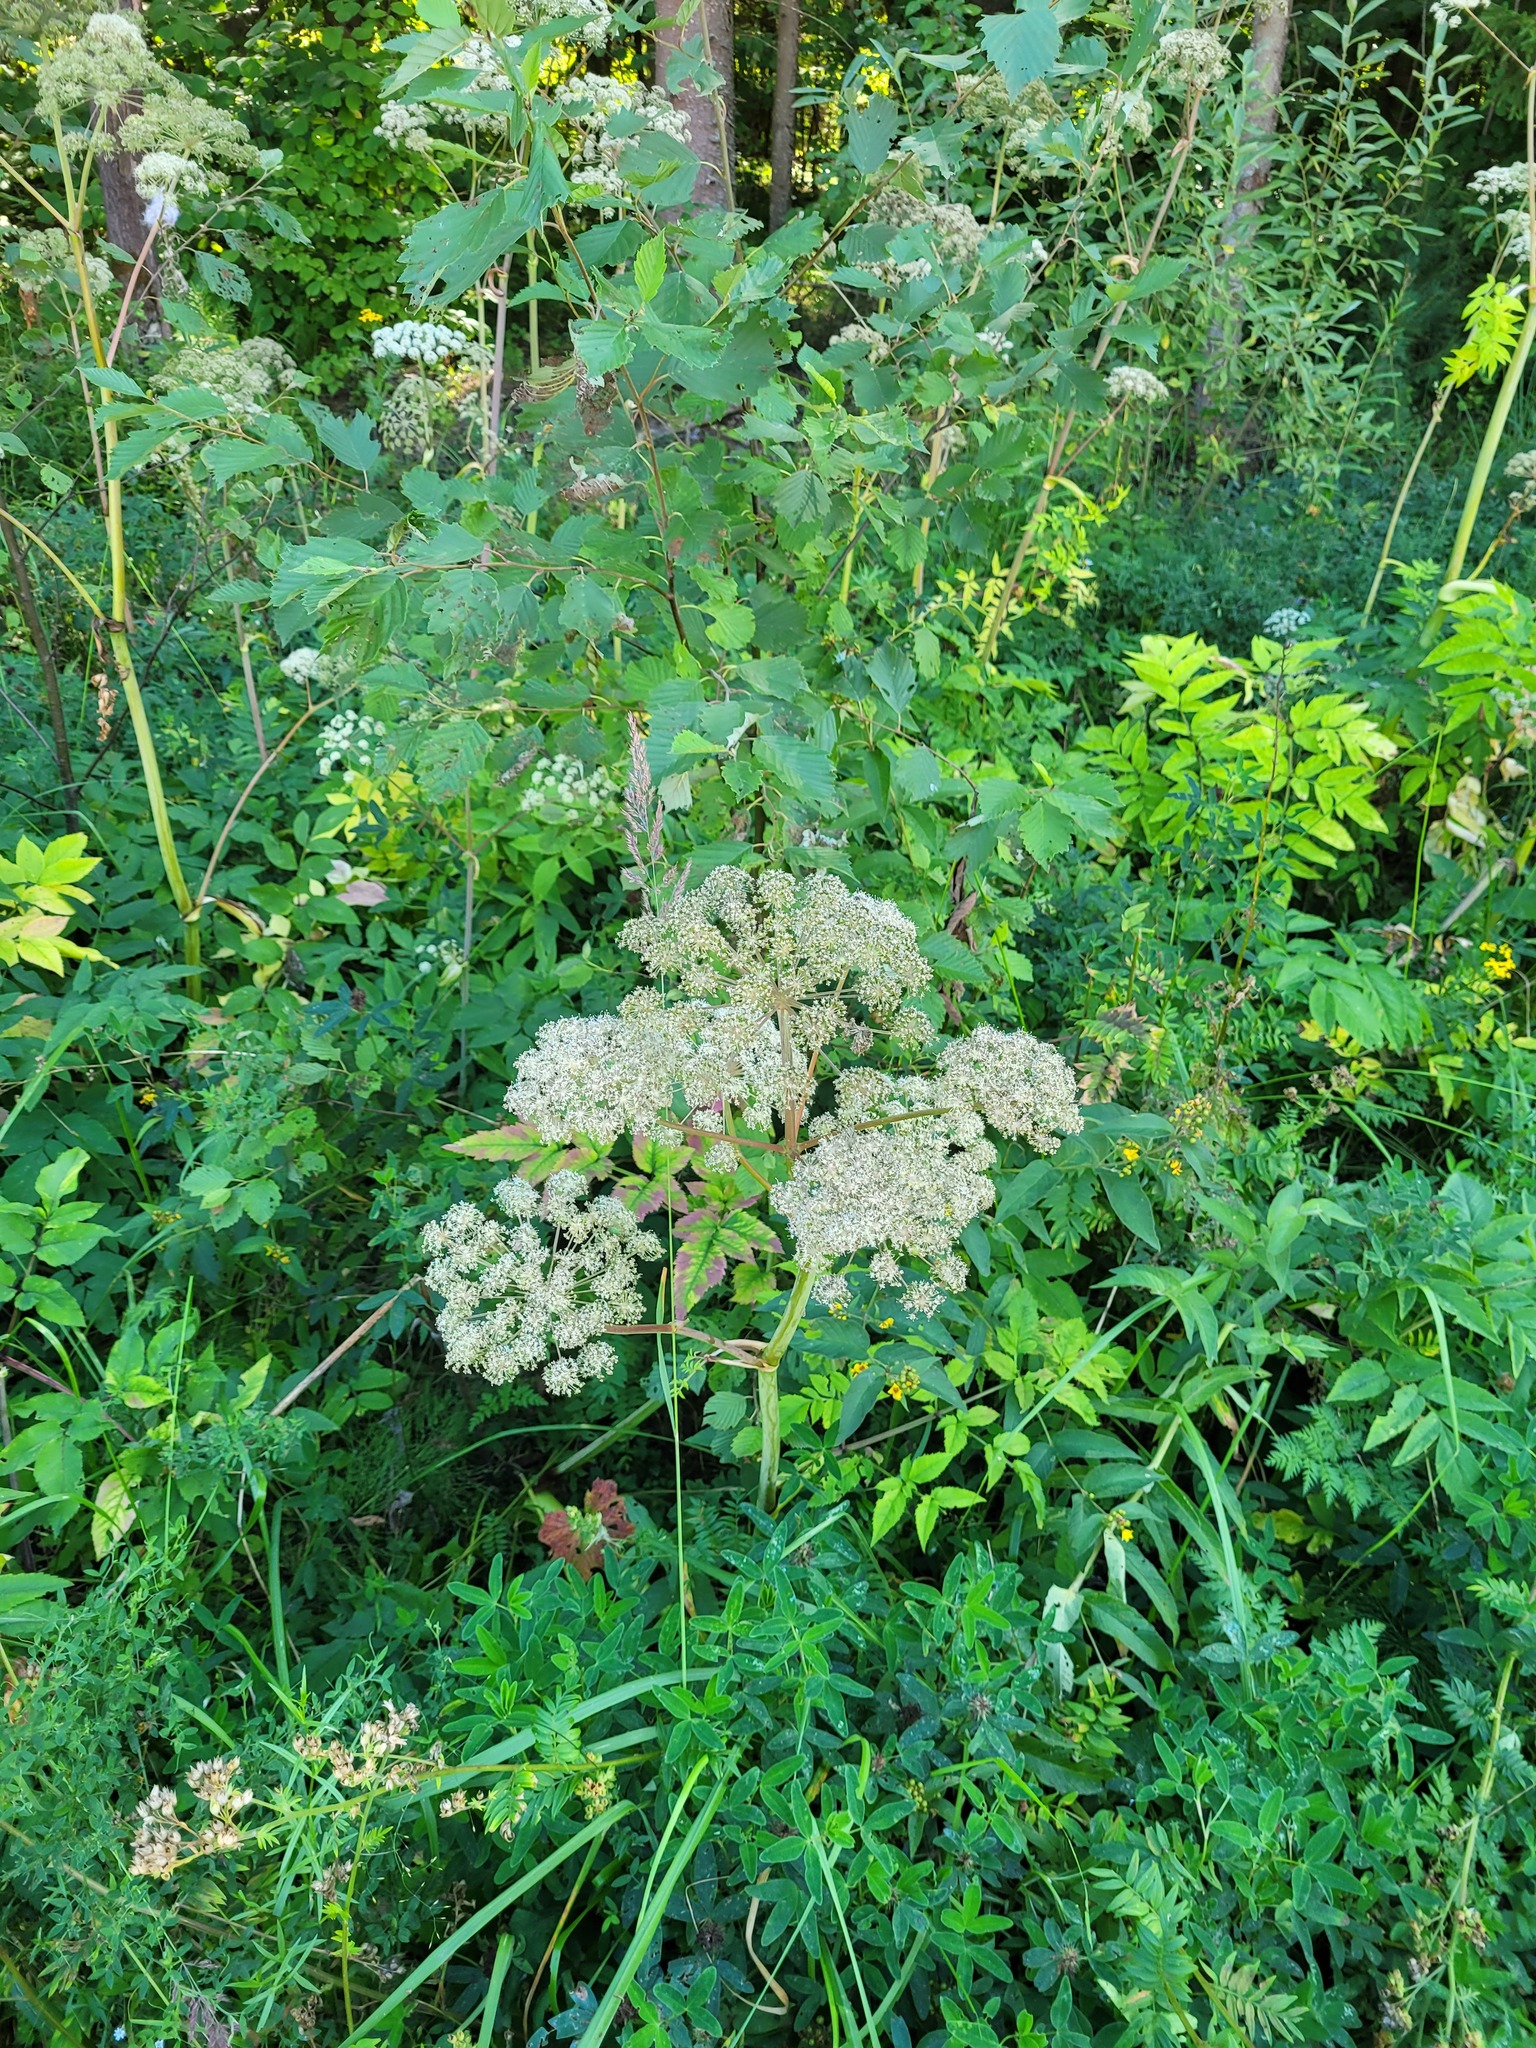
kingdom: Plantae
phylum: Tracheophyta
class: Magnoliopsida
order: Apiales
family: Apiaceae
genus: Angelica
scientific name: Angelica sylvestris
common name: Wild angelica
